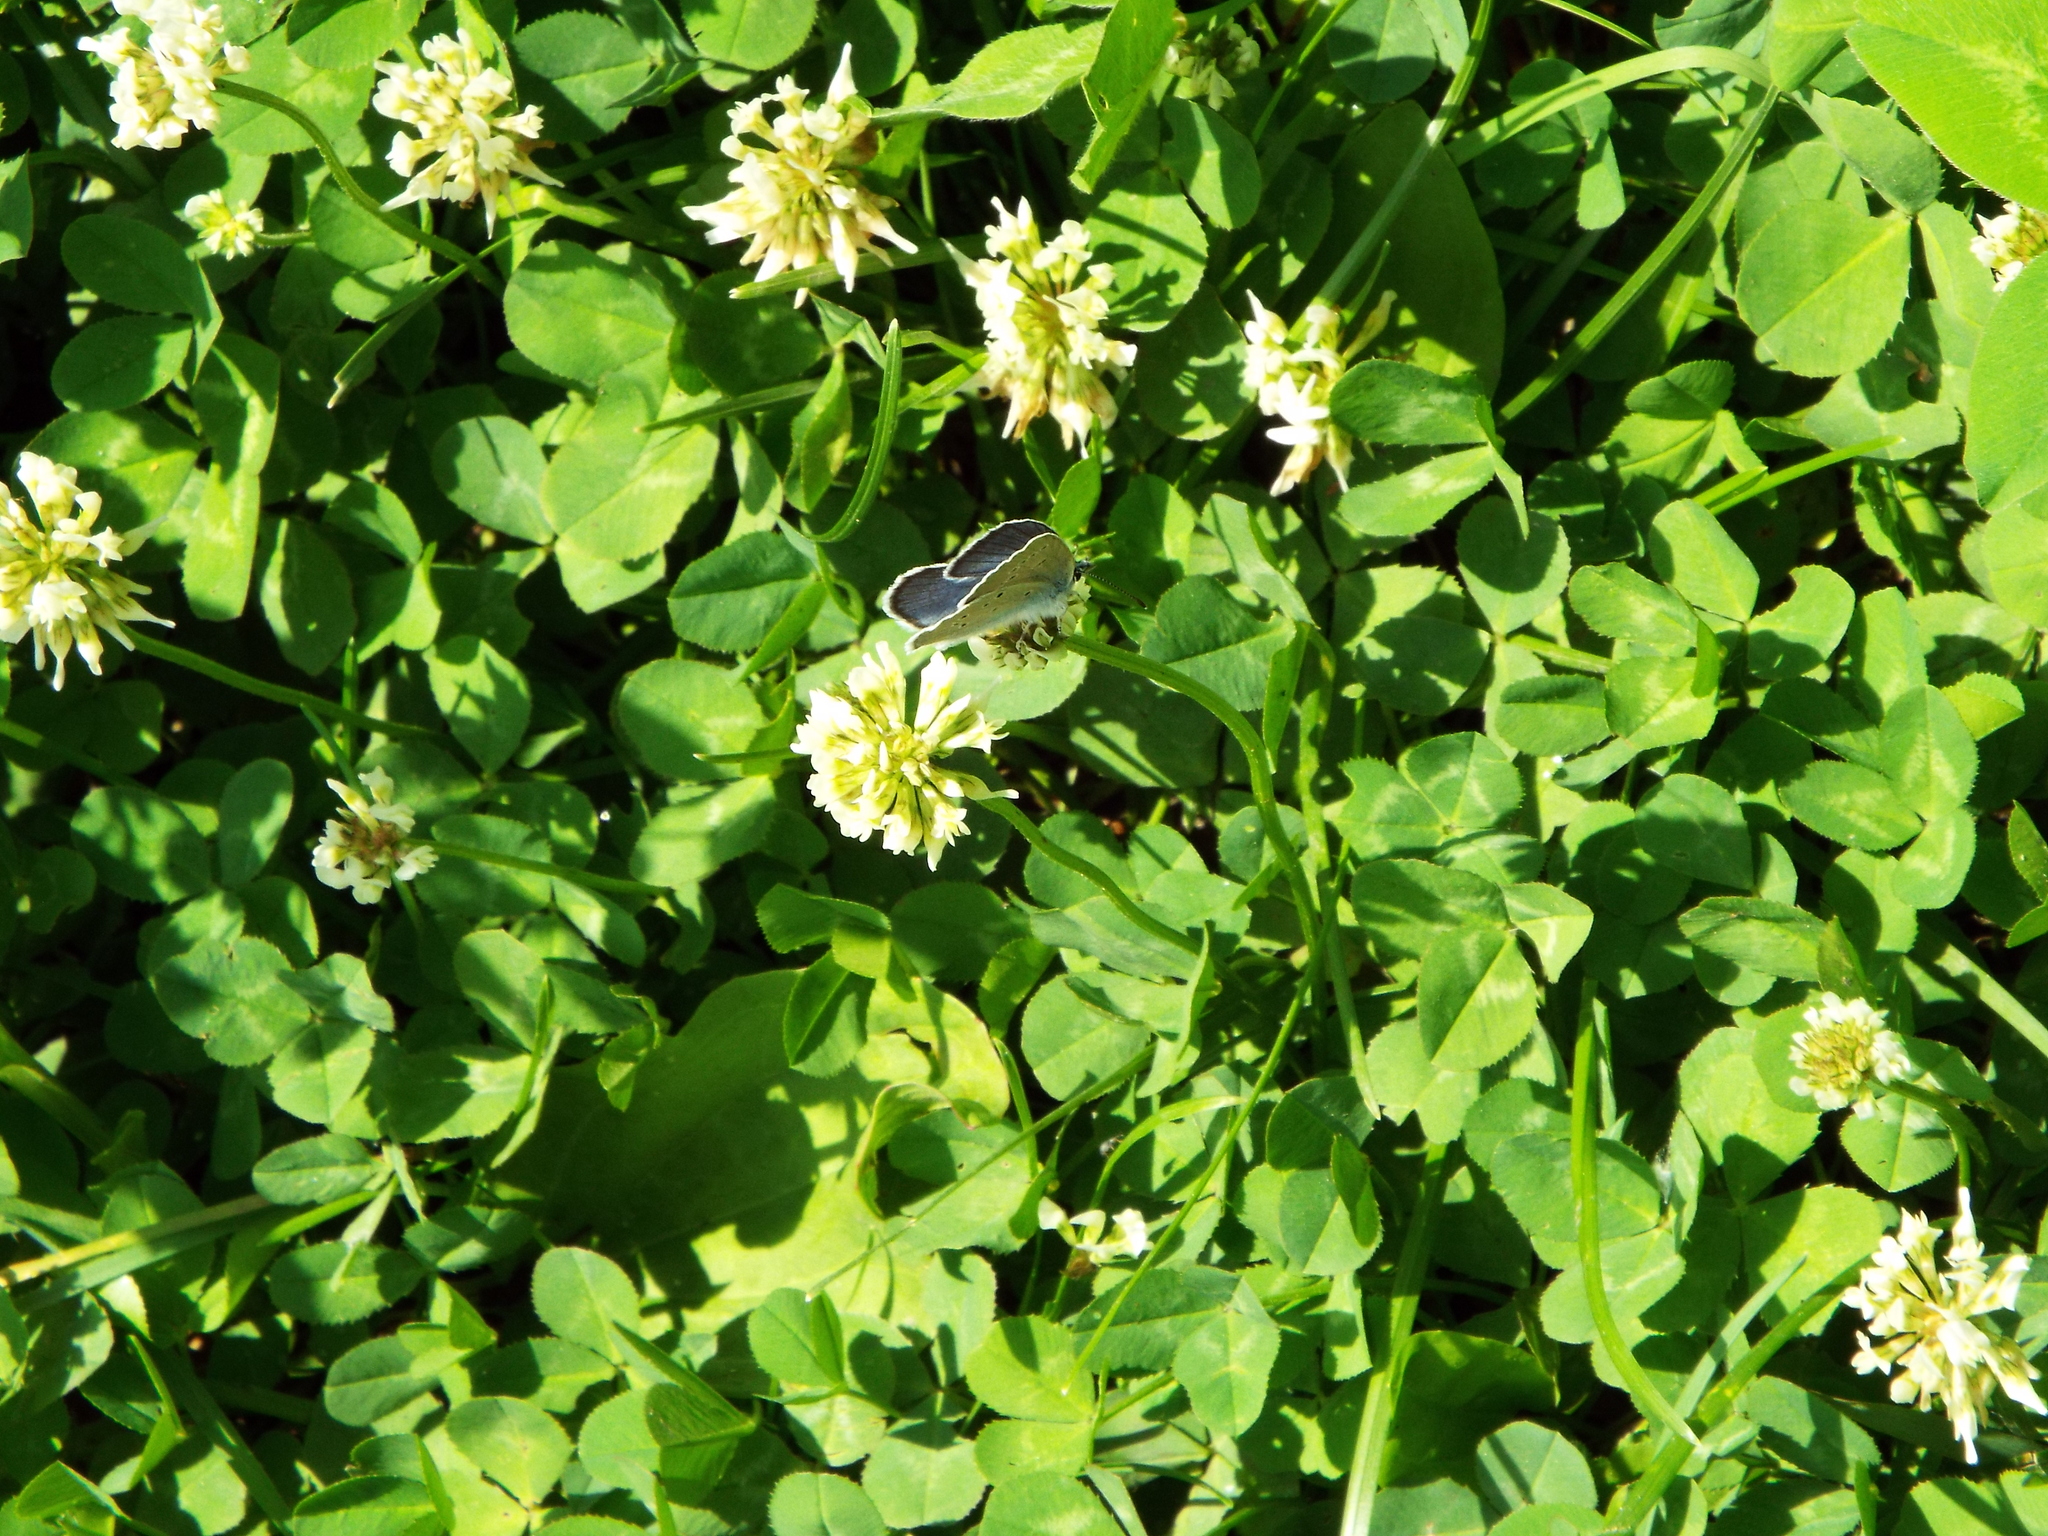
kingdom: Animalia
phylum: Arthropoda
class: Insecta
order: Lepidoptera
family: Lycaenidae
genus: Cyaniris
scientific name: Cyaniris semiargus
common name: Mazarine blue
